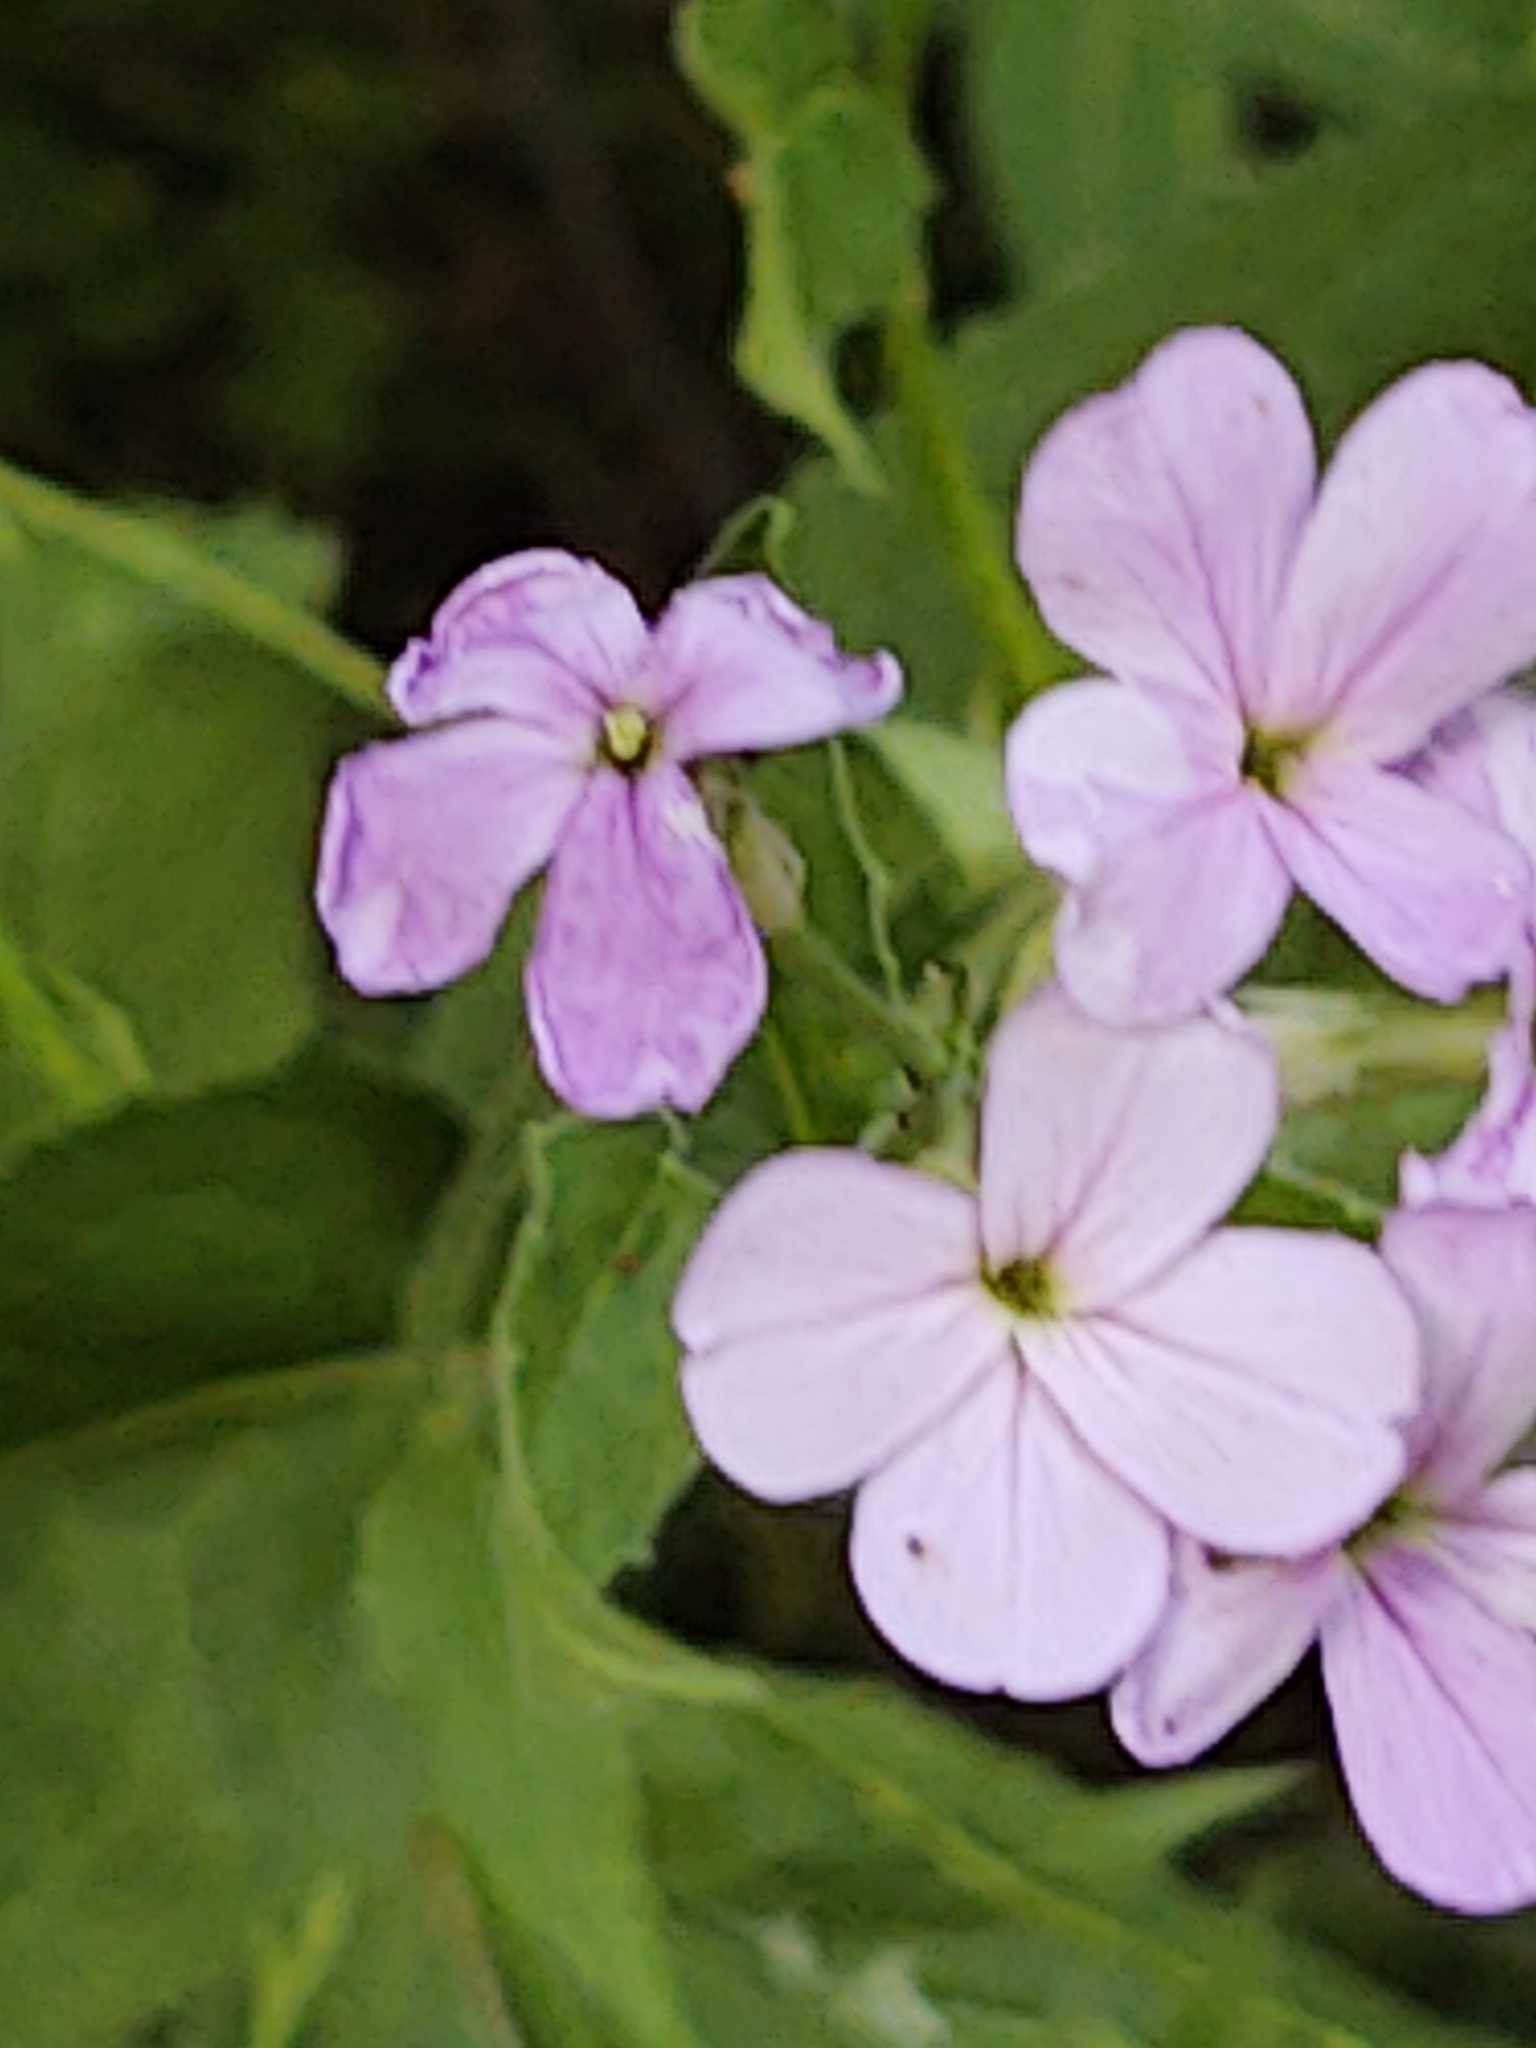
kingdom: Plantae
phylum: Tracheophyta
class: Magnoliopsida
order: Brassicales
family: Brassicaceae
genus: Hesperis
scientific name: Hesperis matronalis
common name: Dame's-violet
